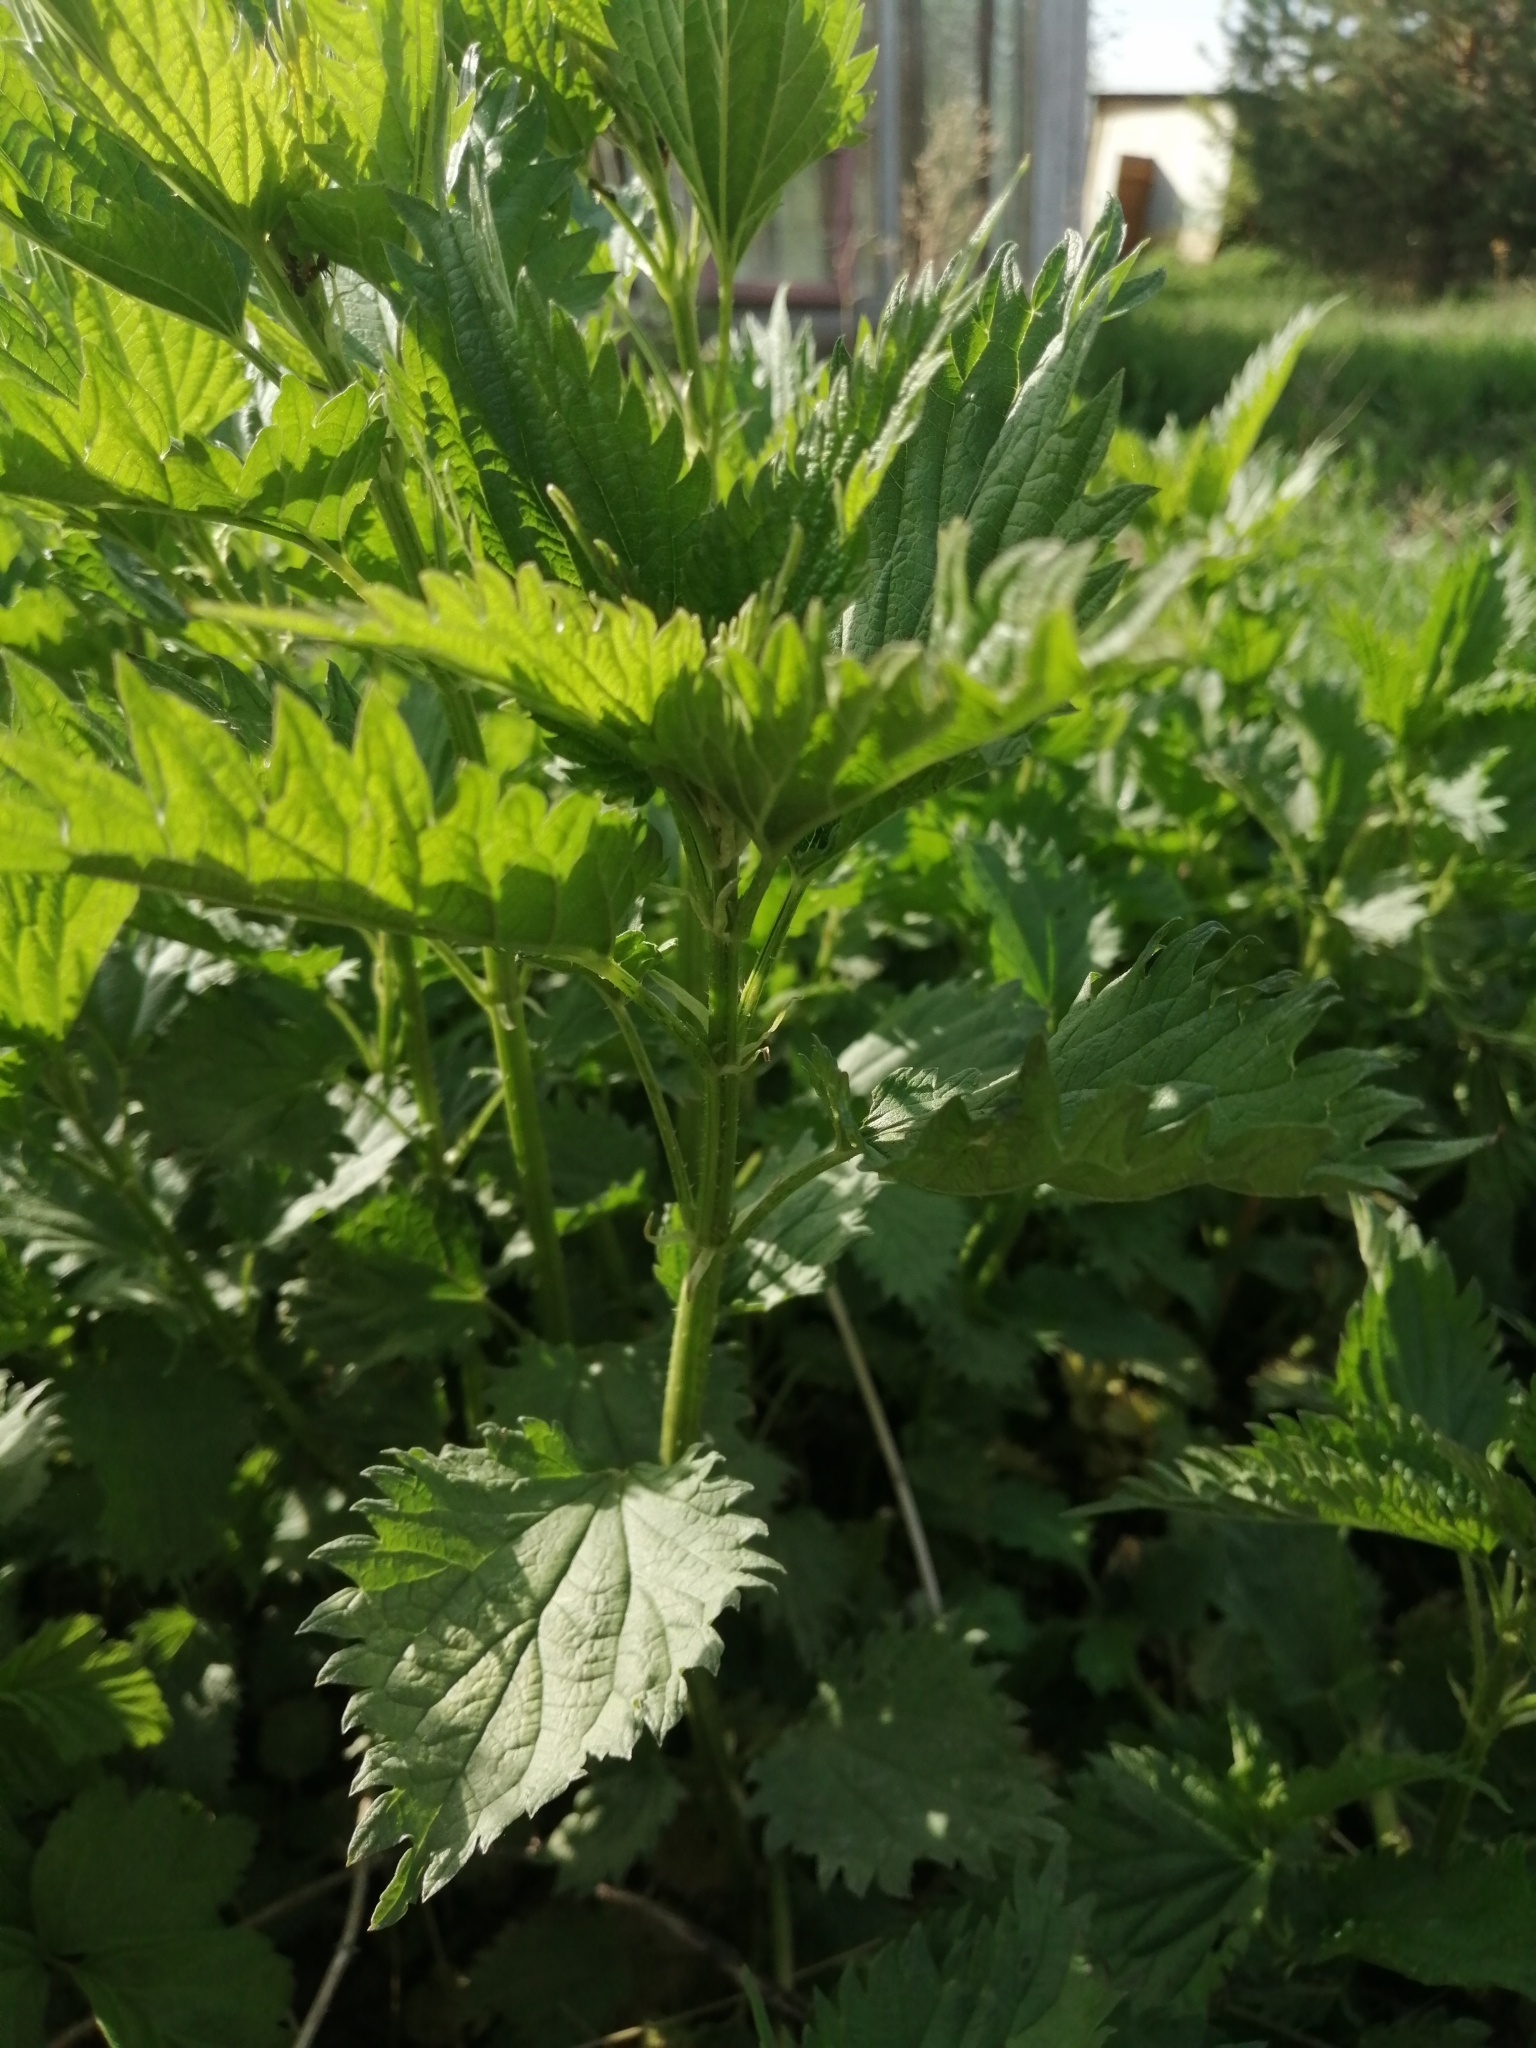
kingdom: Plantae
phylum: Tracheophyta
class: Magnoliopsida
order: Rosales
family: Urticaceae
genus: Urtica
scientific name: Urtica dioica
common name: Common nettle
